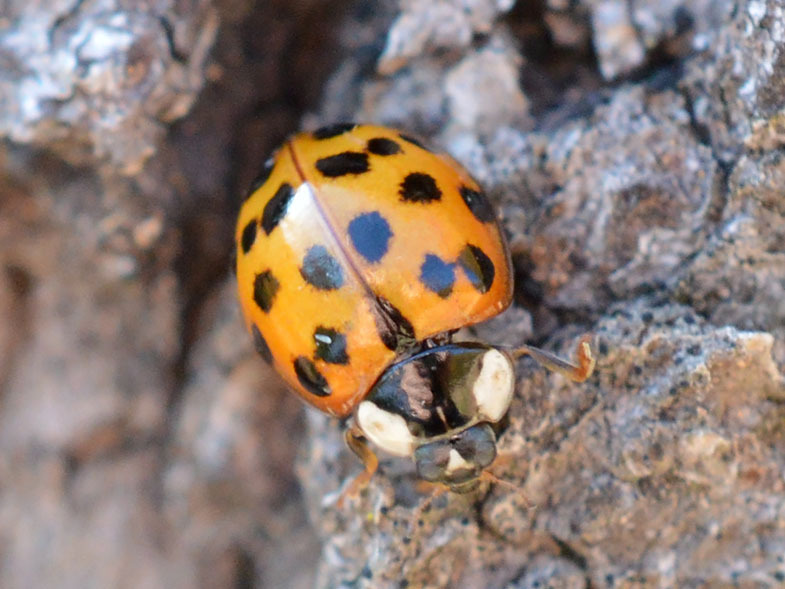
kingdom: Animalia
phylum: Arthropoda
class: Insecta
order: Coleoptera
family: Coccinellidae
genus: Harmonia
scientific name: Harmonia axyridis
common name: Harlequin ladybird
